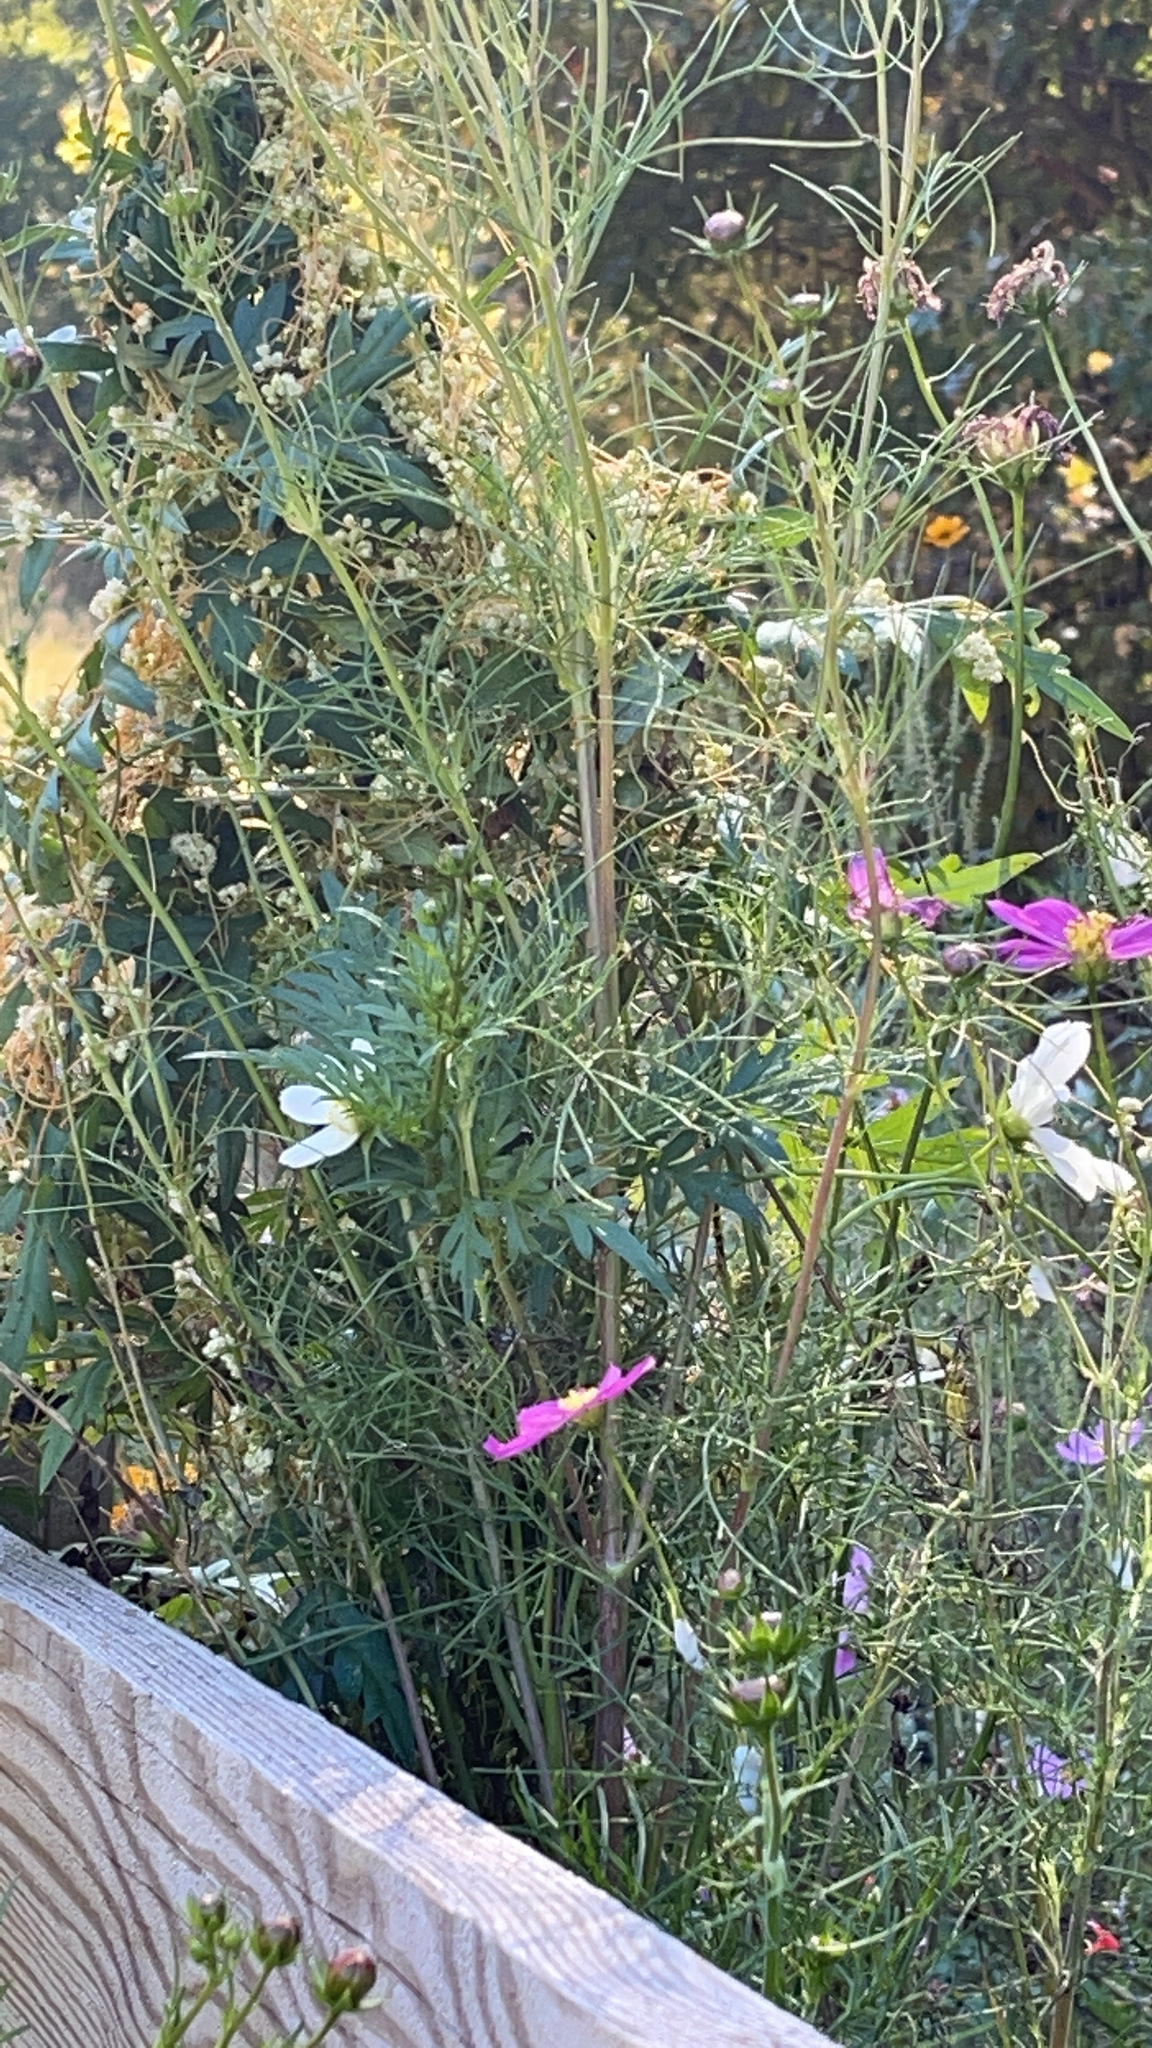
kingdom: Plantae
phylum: Tracheophyta
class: Magnoliopsida
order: Asterales
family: Asteraceae
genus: Cosmos
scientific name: Cosmos bipinnatus
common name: Garden cosmos
